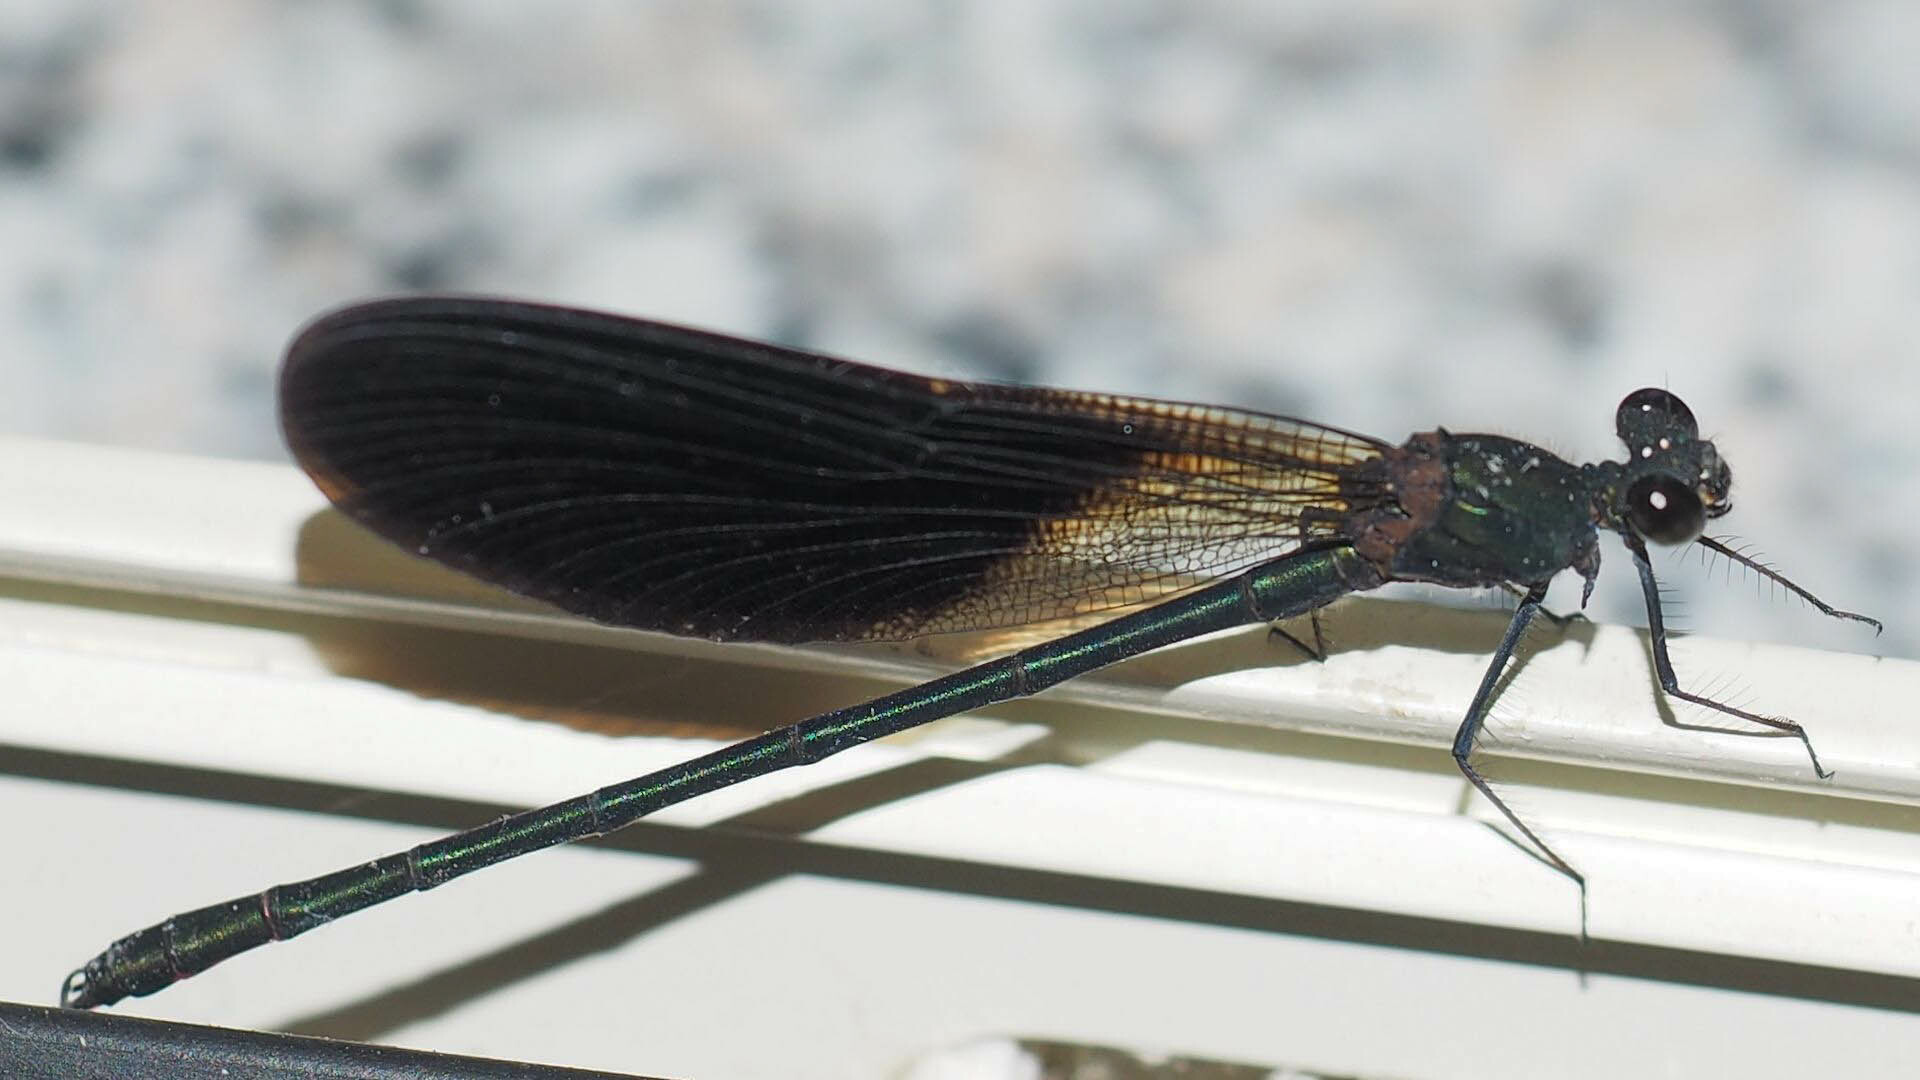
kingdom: Animalia
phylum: Arthropoda
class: Insecta
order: Odonata
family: Calopterygidae
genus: Calopteryx
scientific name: Calopteryx haemorrhoidalis
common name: Copper demoiselle
